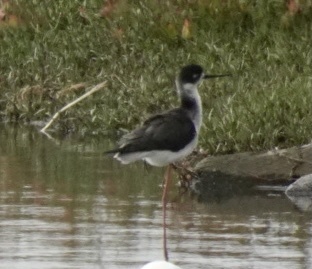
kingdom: Animalia
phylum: Chordata
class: Aves
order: Charadriiformes
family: Recurvirostridae
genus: Himantopus
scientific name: Himantopus mexicanus
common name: Black-necked stilt
